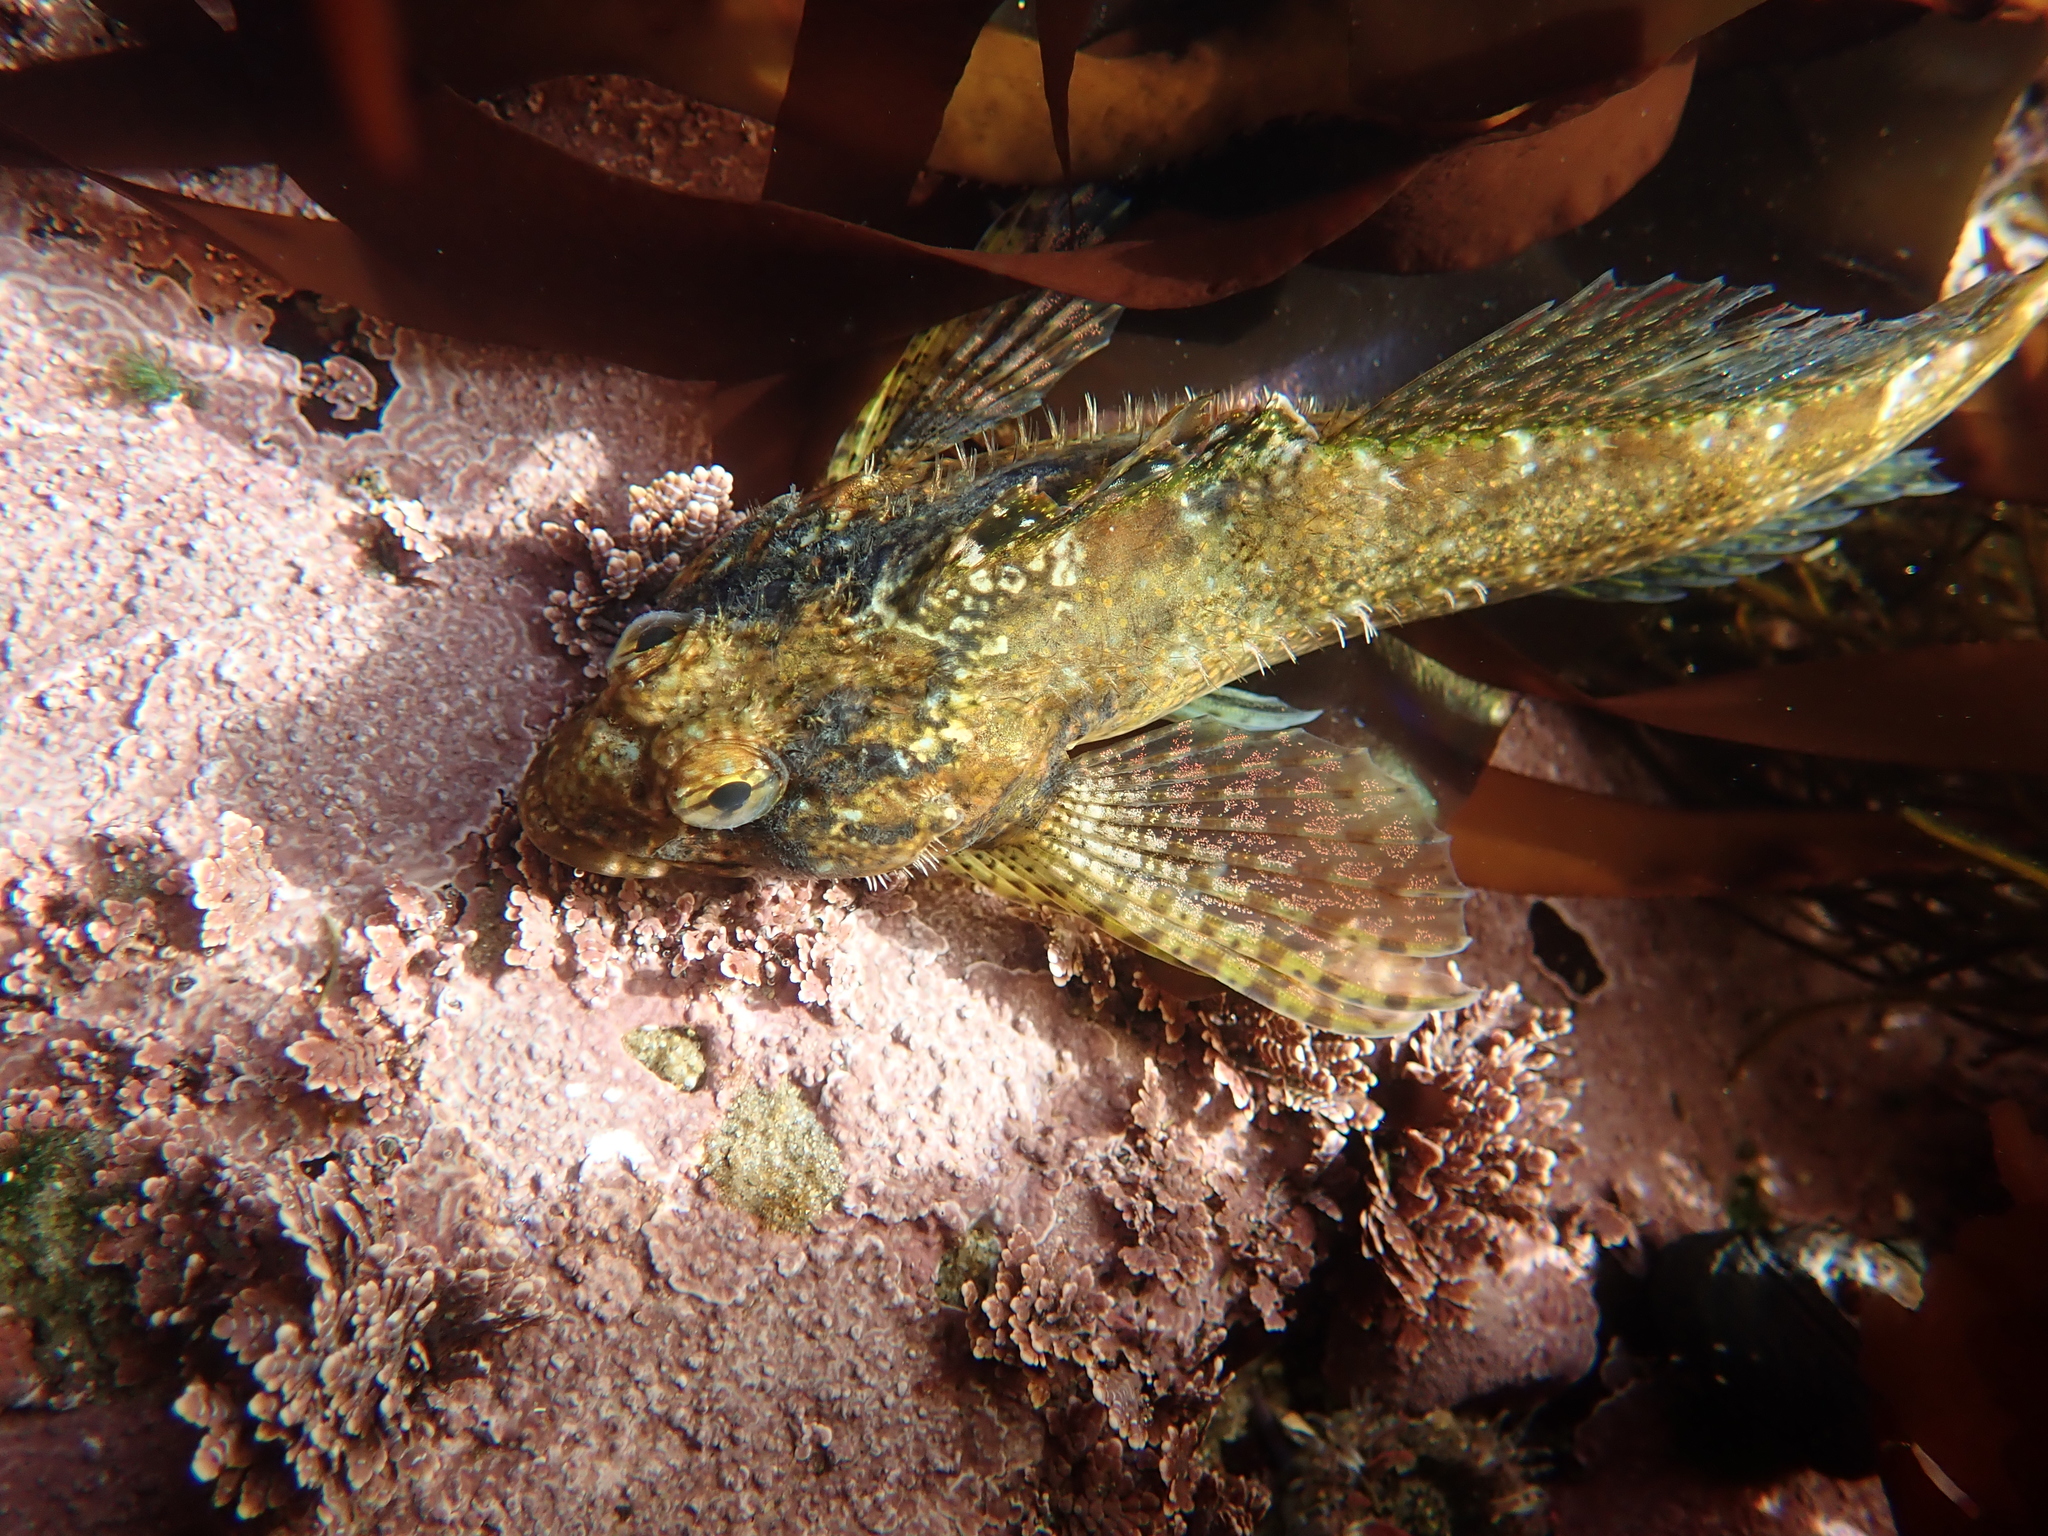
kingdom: Animalia
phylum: Chordata
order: Scorpaeniformes
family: Cottidae
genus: Clinocottus
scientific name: Clinocottus analis
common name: Woolly sculpin
